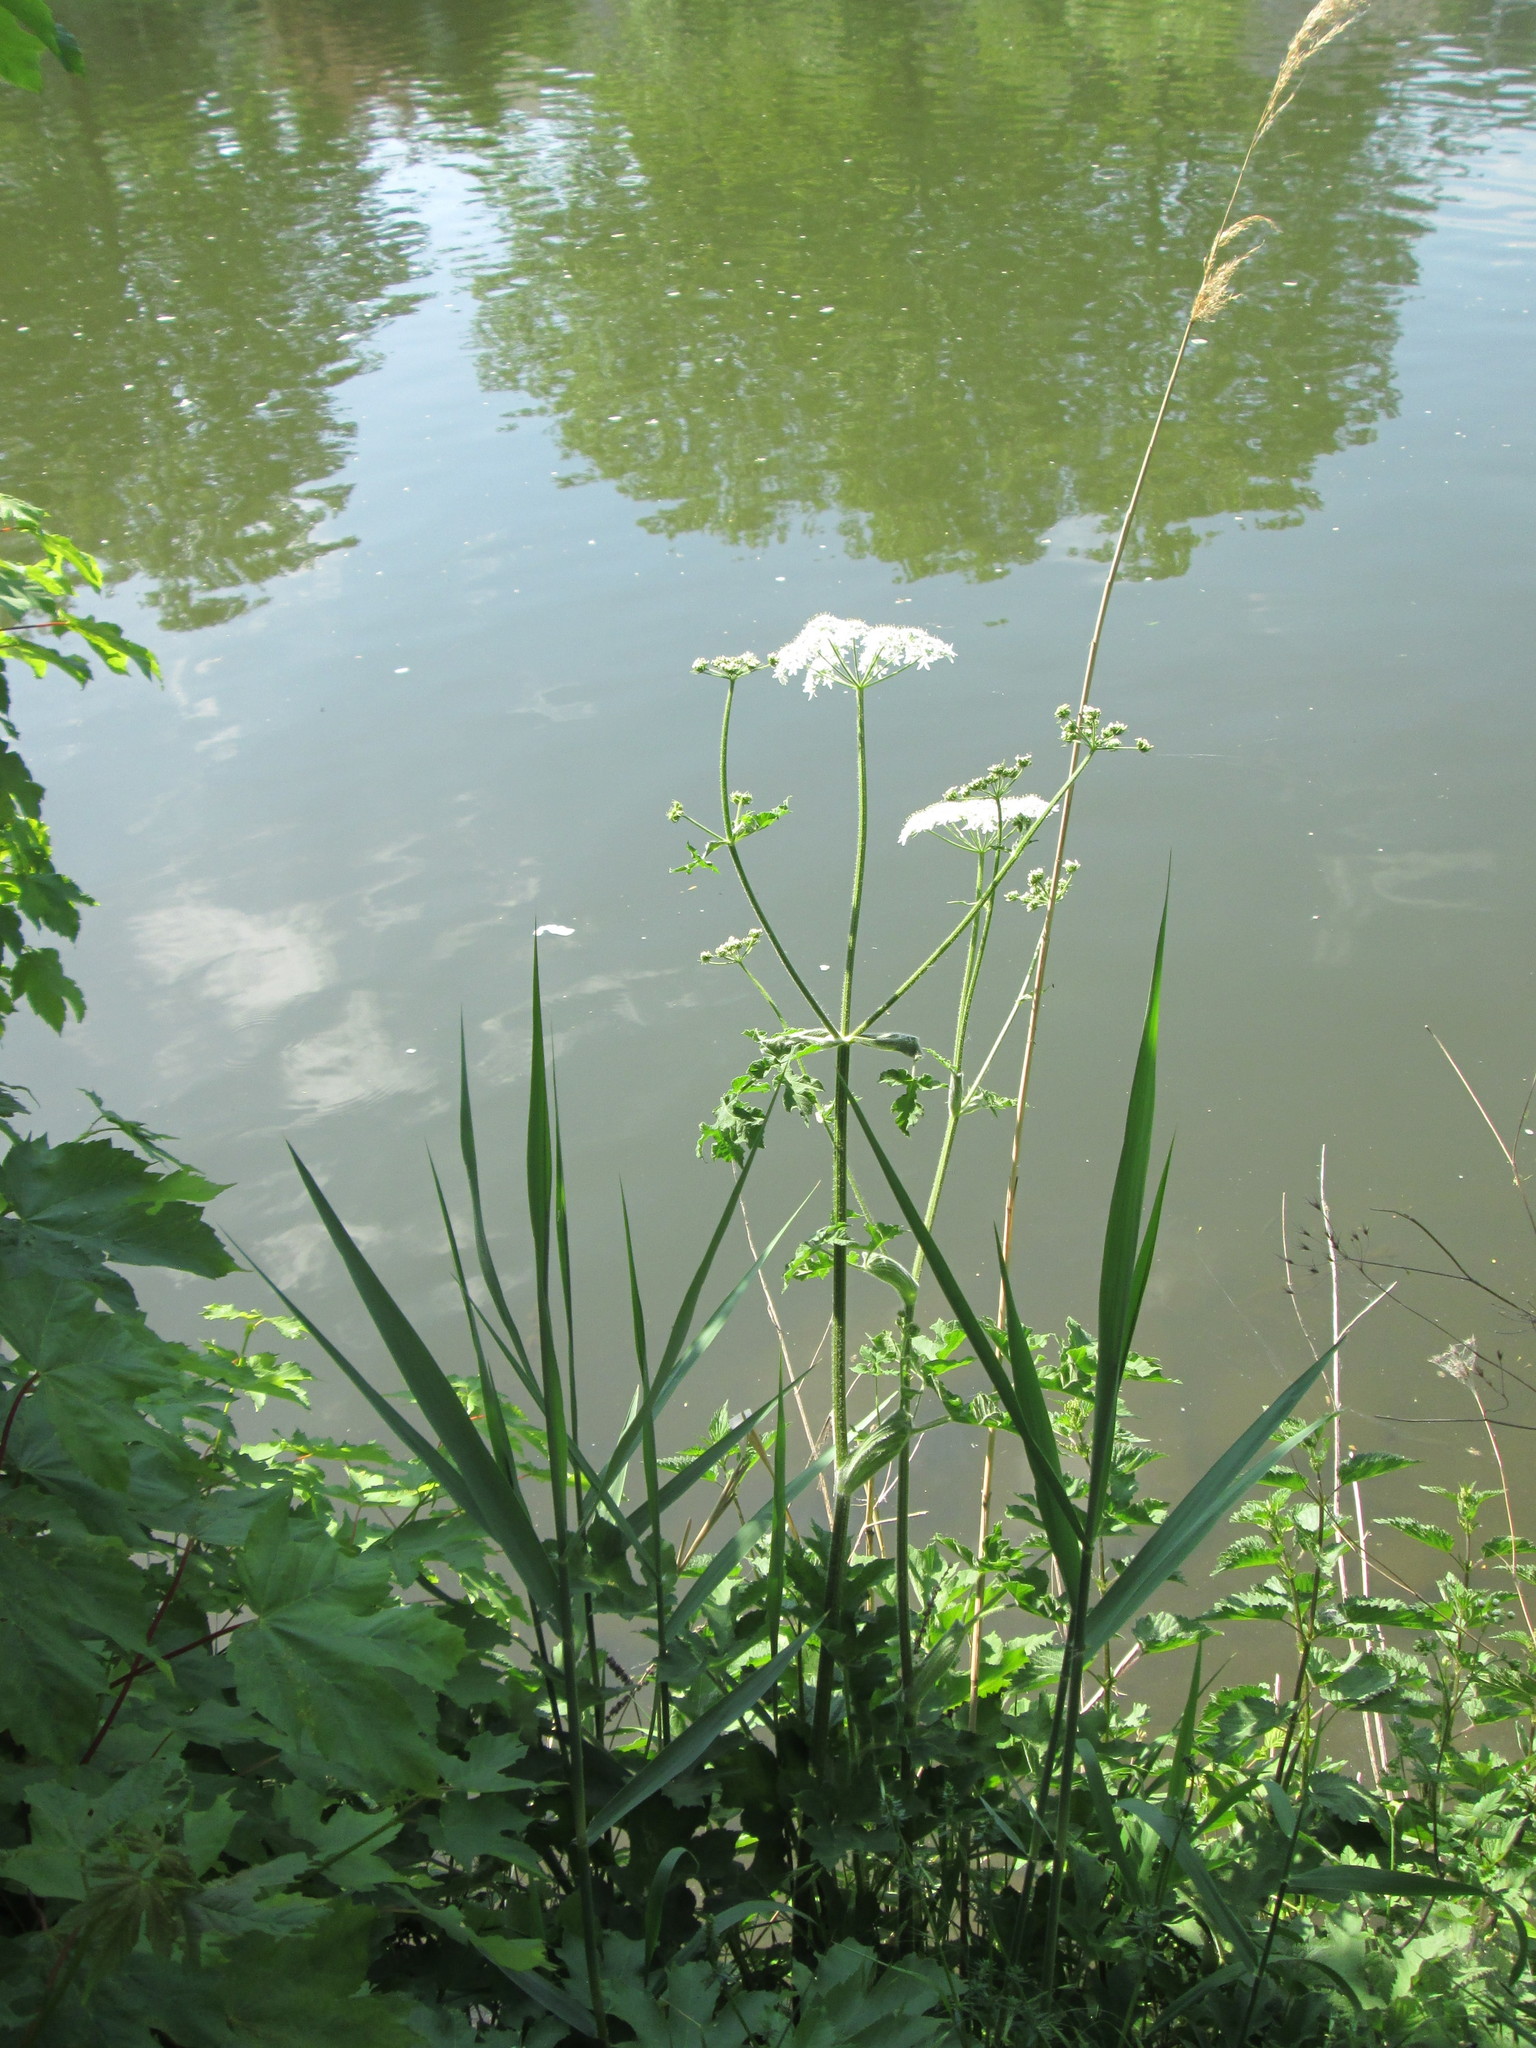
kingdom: Plantae
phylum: Tracheophyta
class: Magnoliopsida
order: Apiales
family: Apiaceae
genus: Heracleum
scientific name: Heracleum sphondylium
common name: Hogweed
